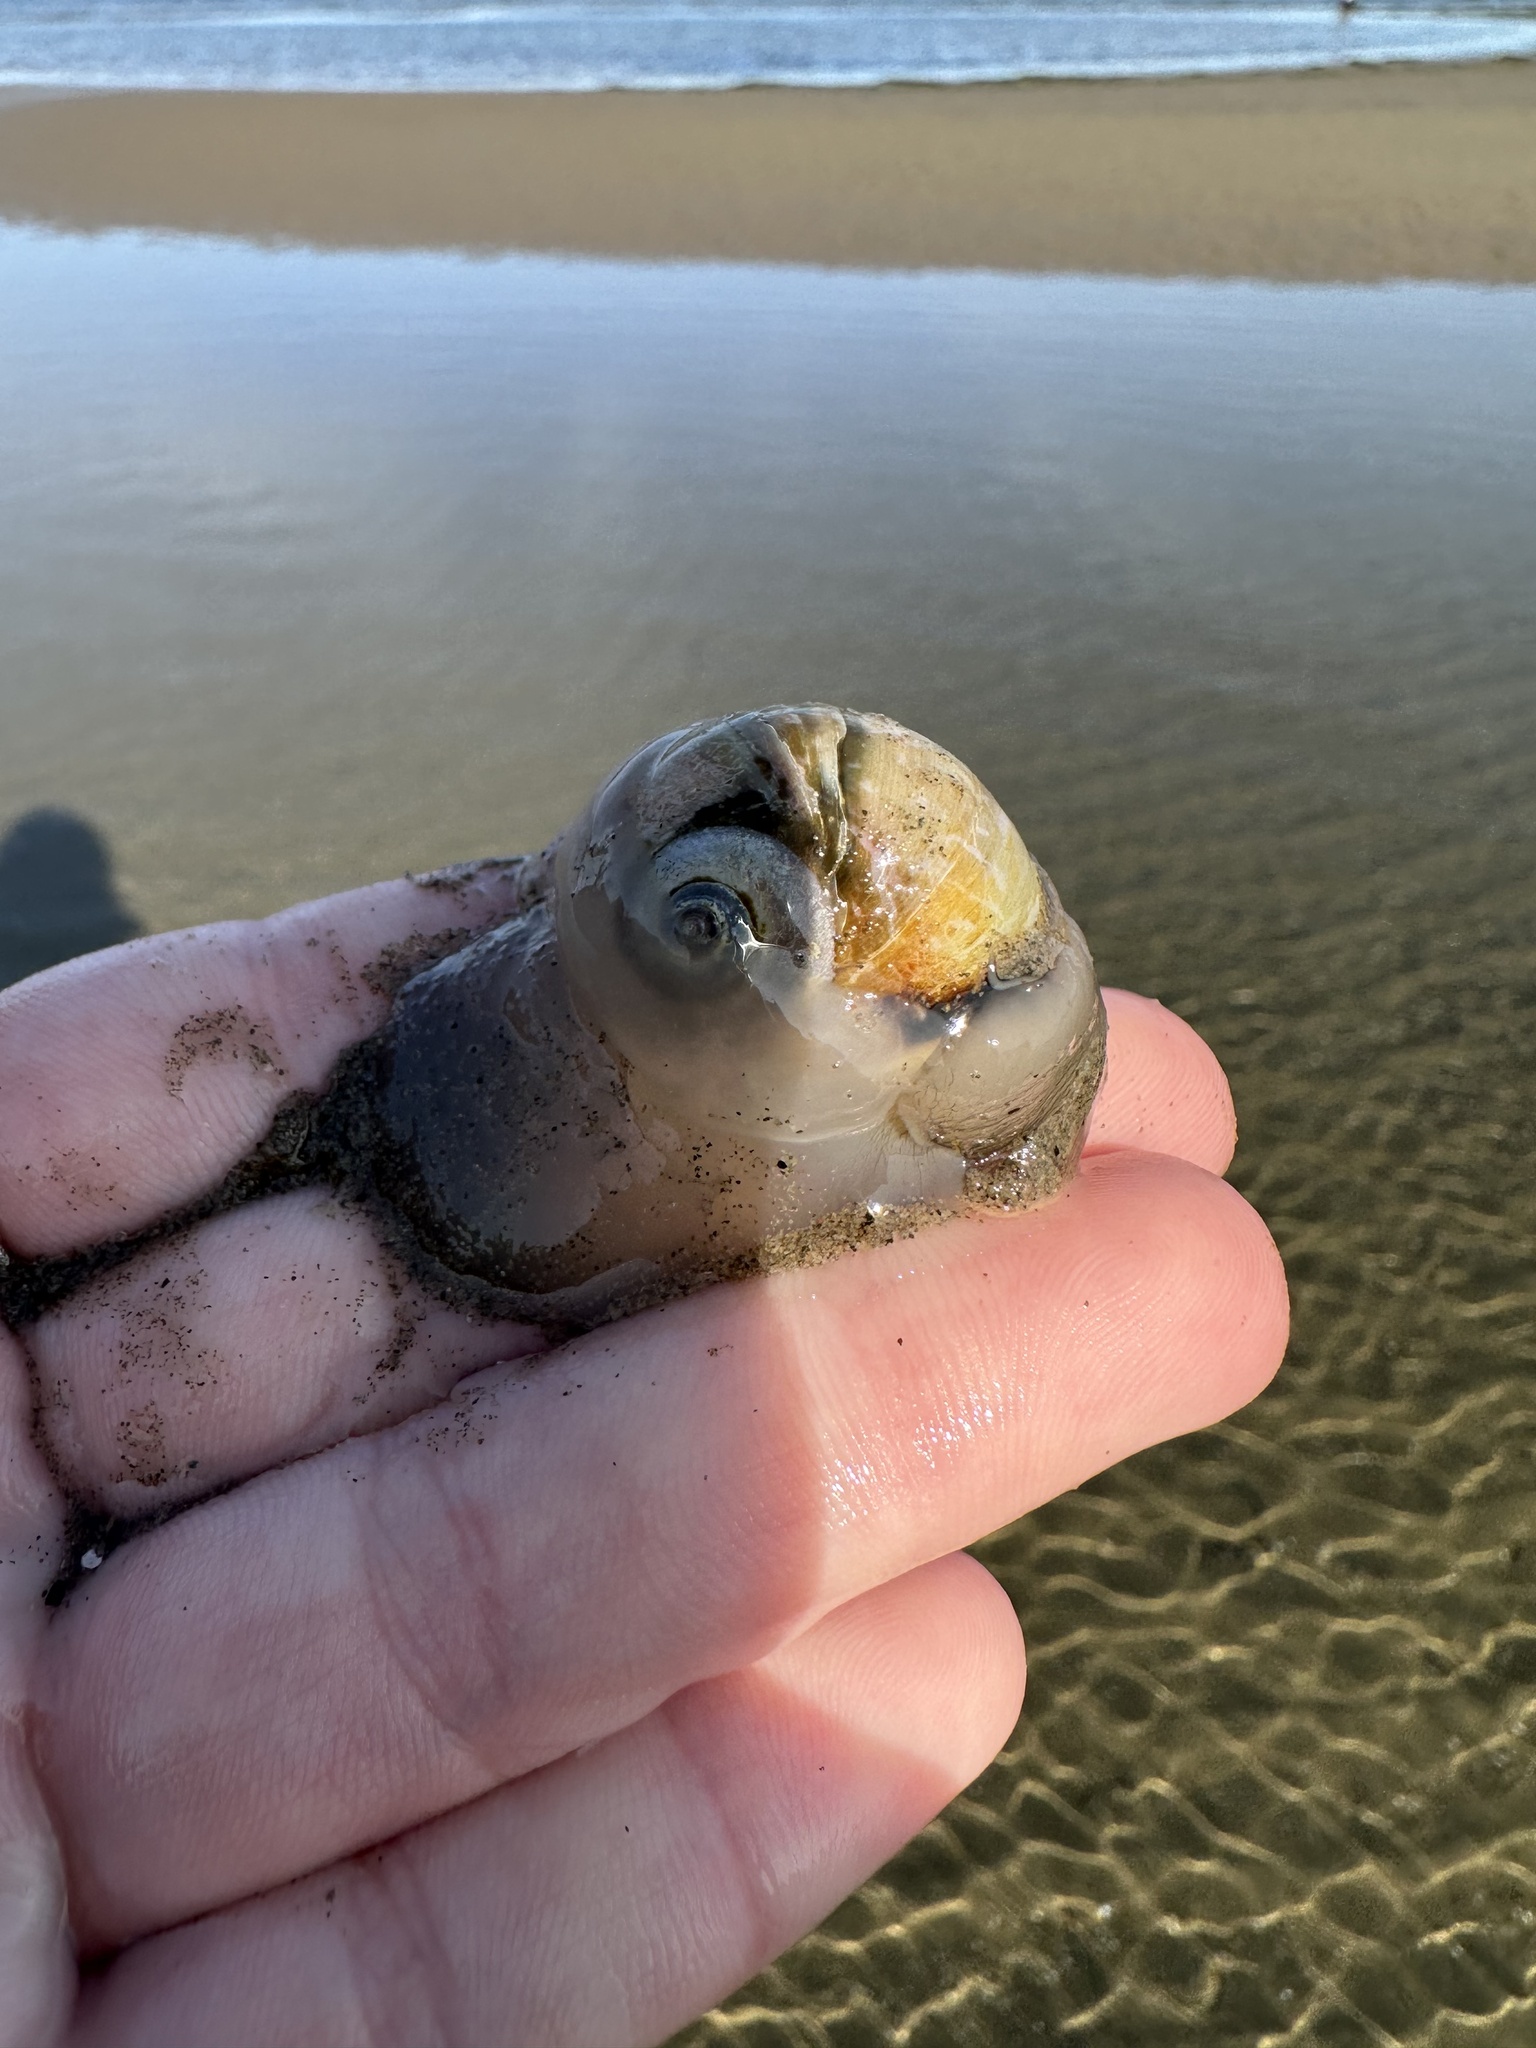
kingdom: Animalia
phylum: Mollusca
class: Gastropoda
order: Littorinimorpha
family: Naticidae
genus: Euspira
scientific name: Euspira heros
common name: Common northern moonsnail
